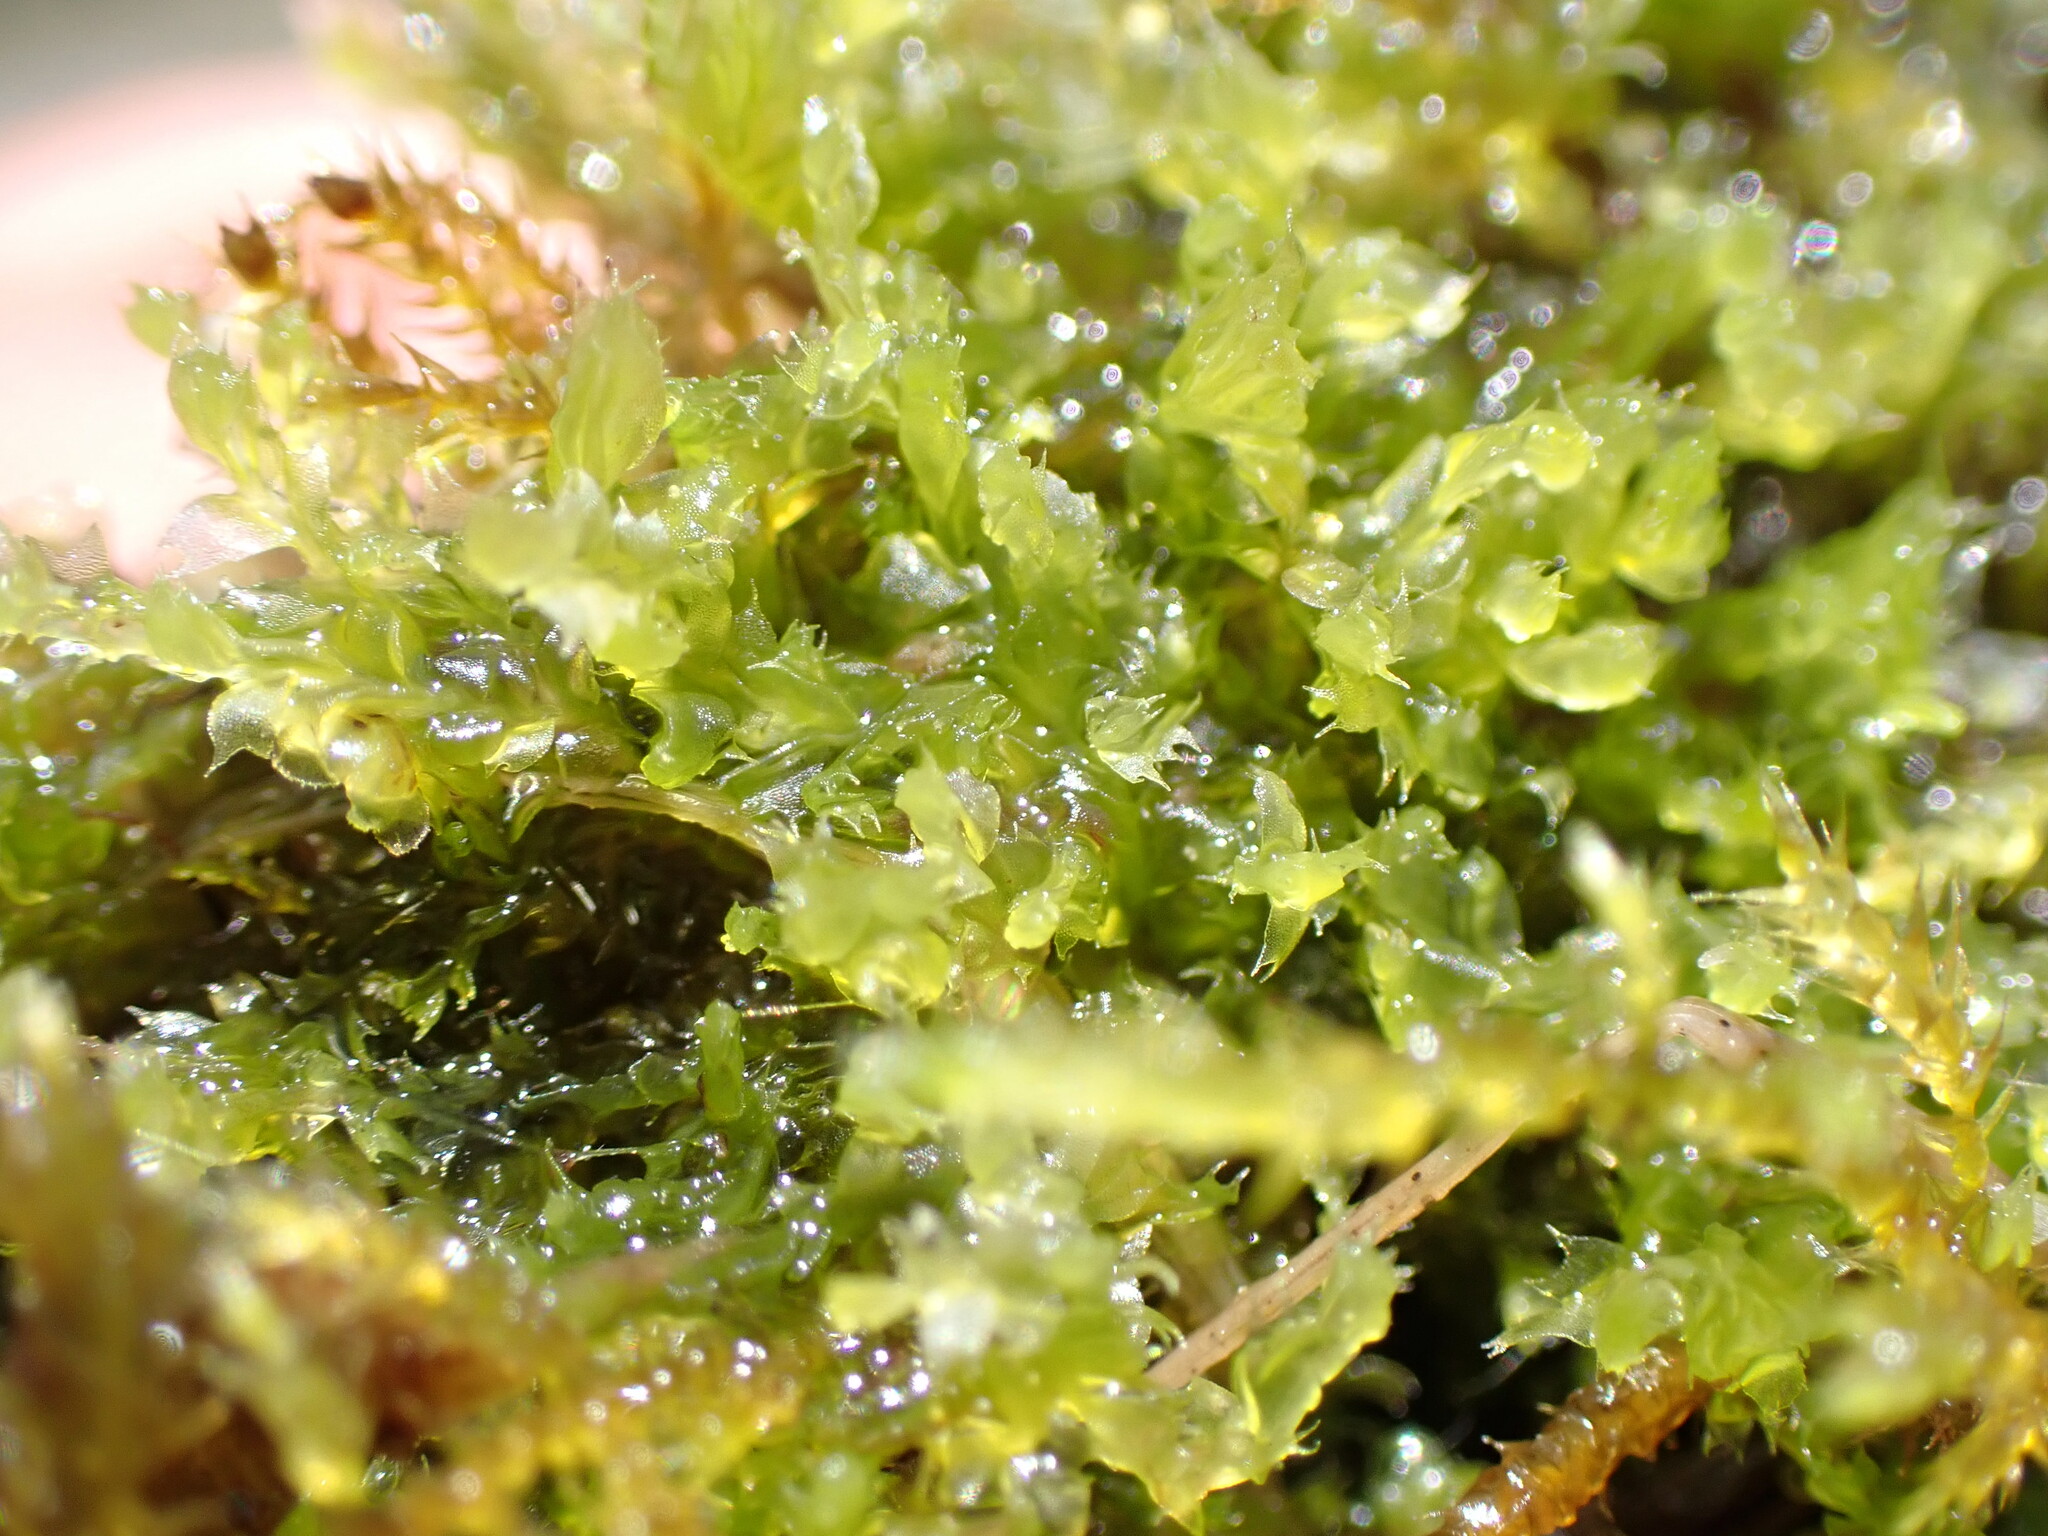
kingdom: Plantae
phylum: Marchantiophyta
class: Jungermanniopsida
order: Jungermanniales
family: Lophocoleaceae
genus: Lophocolea
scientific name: Lophocolea bidentata
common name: Bifid crestwort
